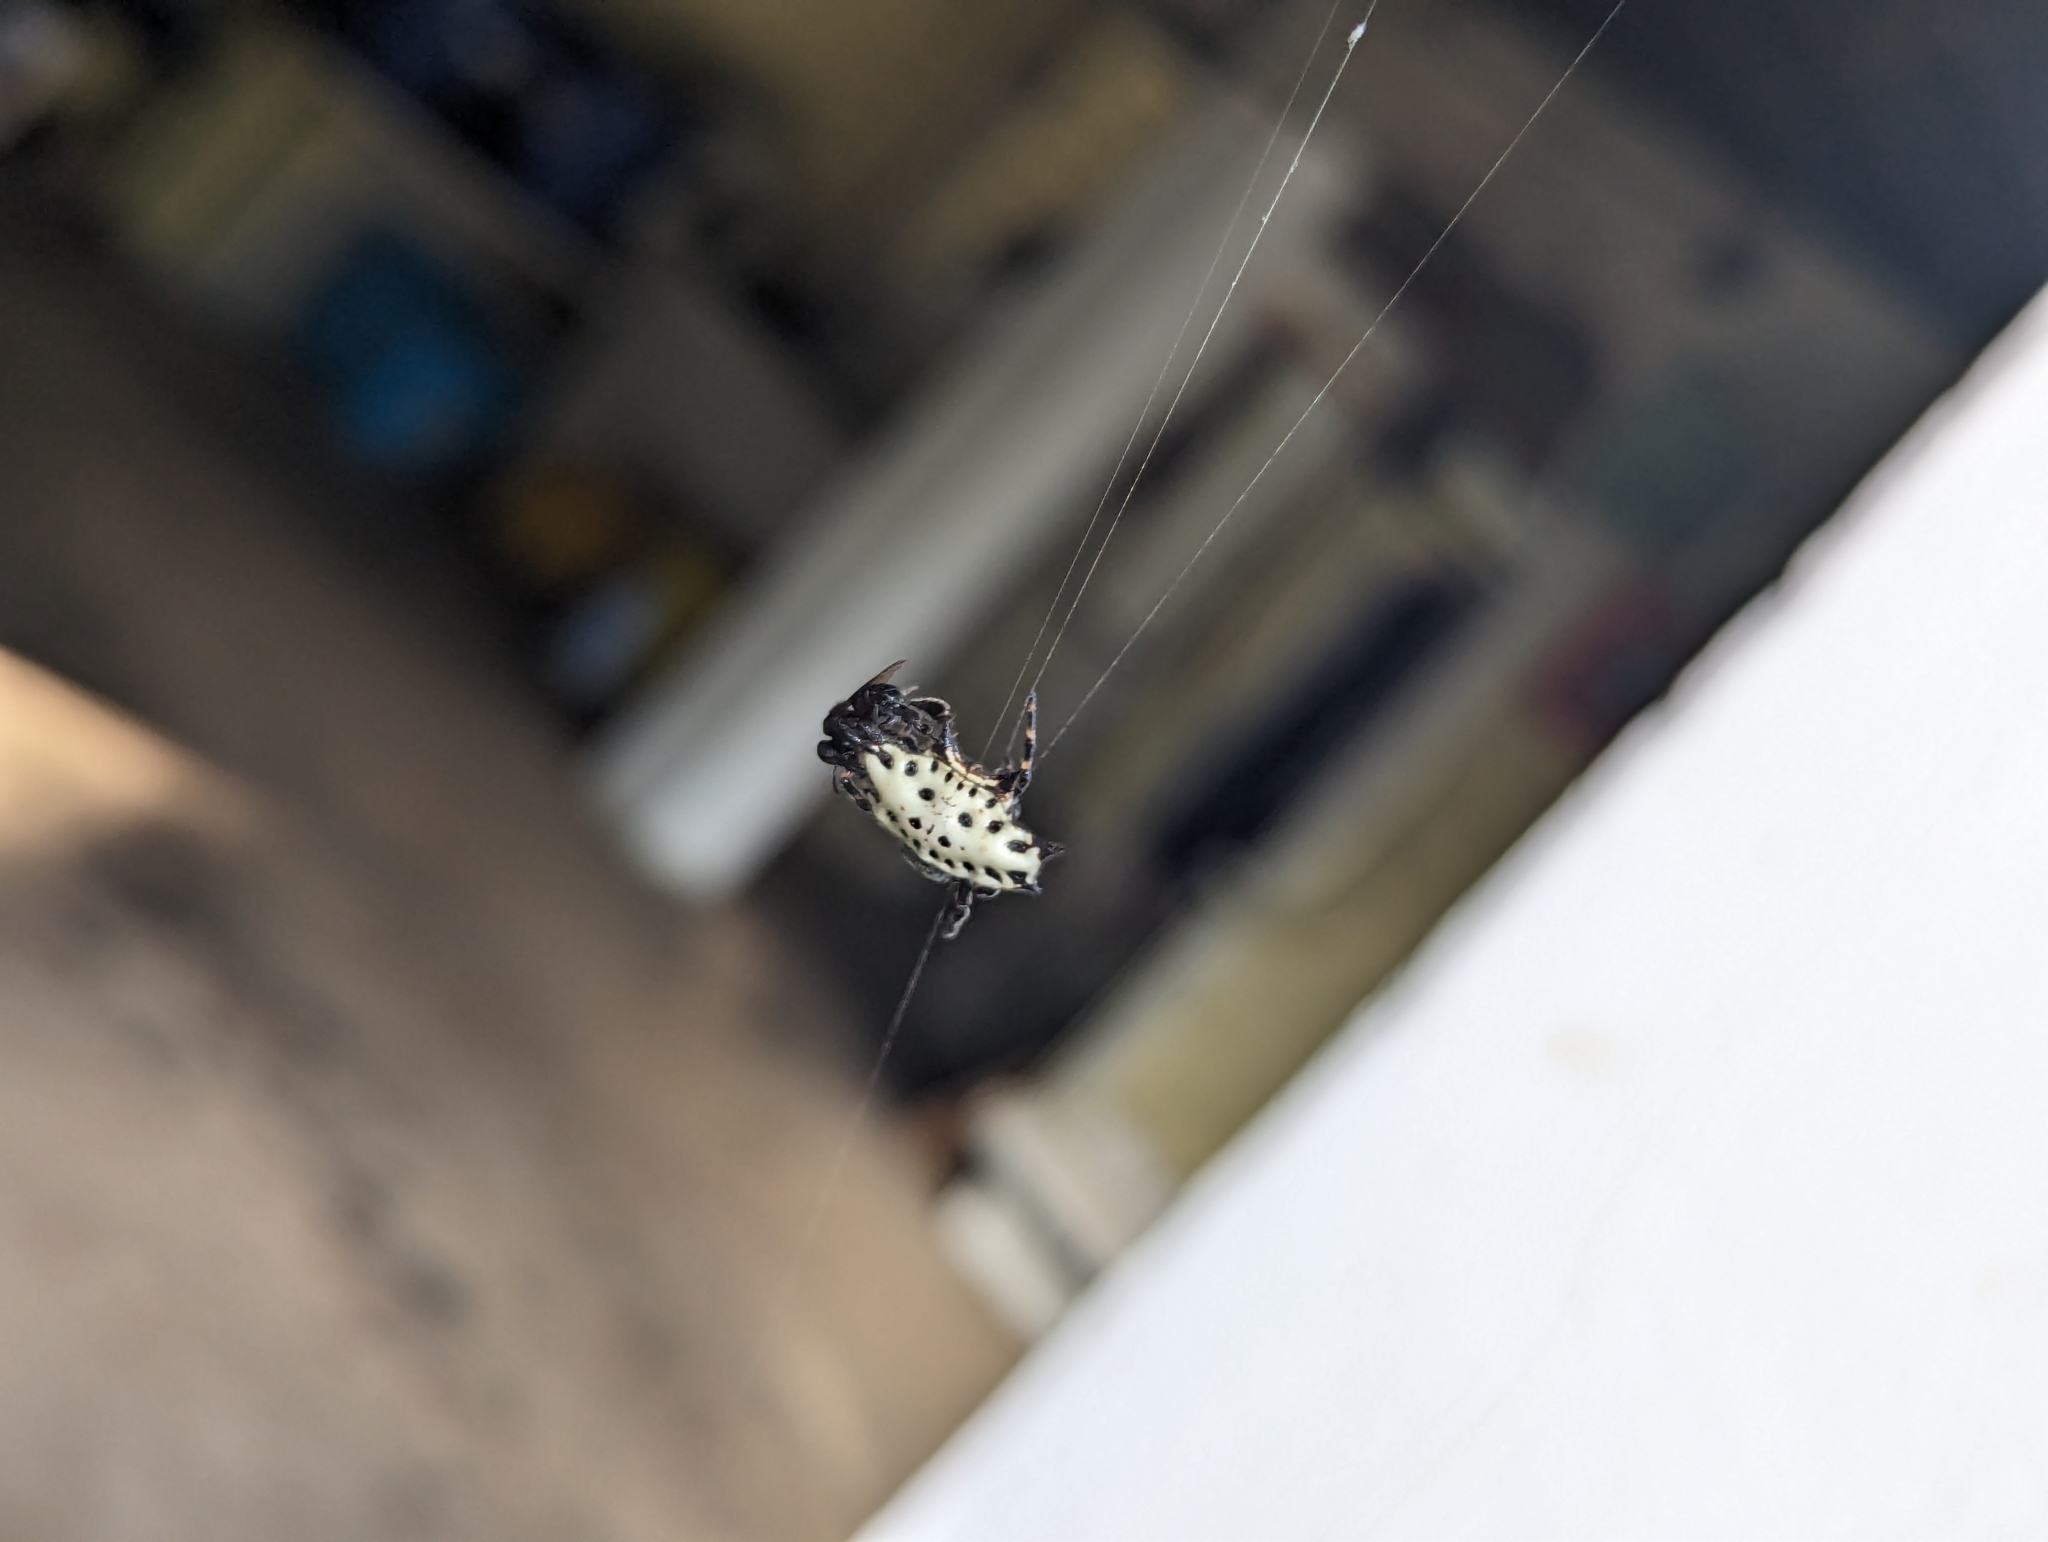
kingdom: Animalia
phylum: Arthropoda
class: Arachnida
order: Araneae
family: Araneidae
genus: Gasteracantha
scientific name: Gasteracantha cancriformis
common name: Orb weavers
